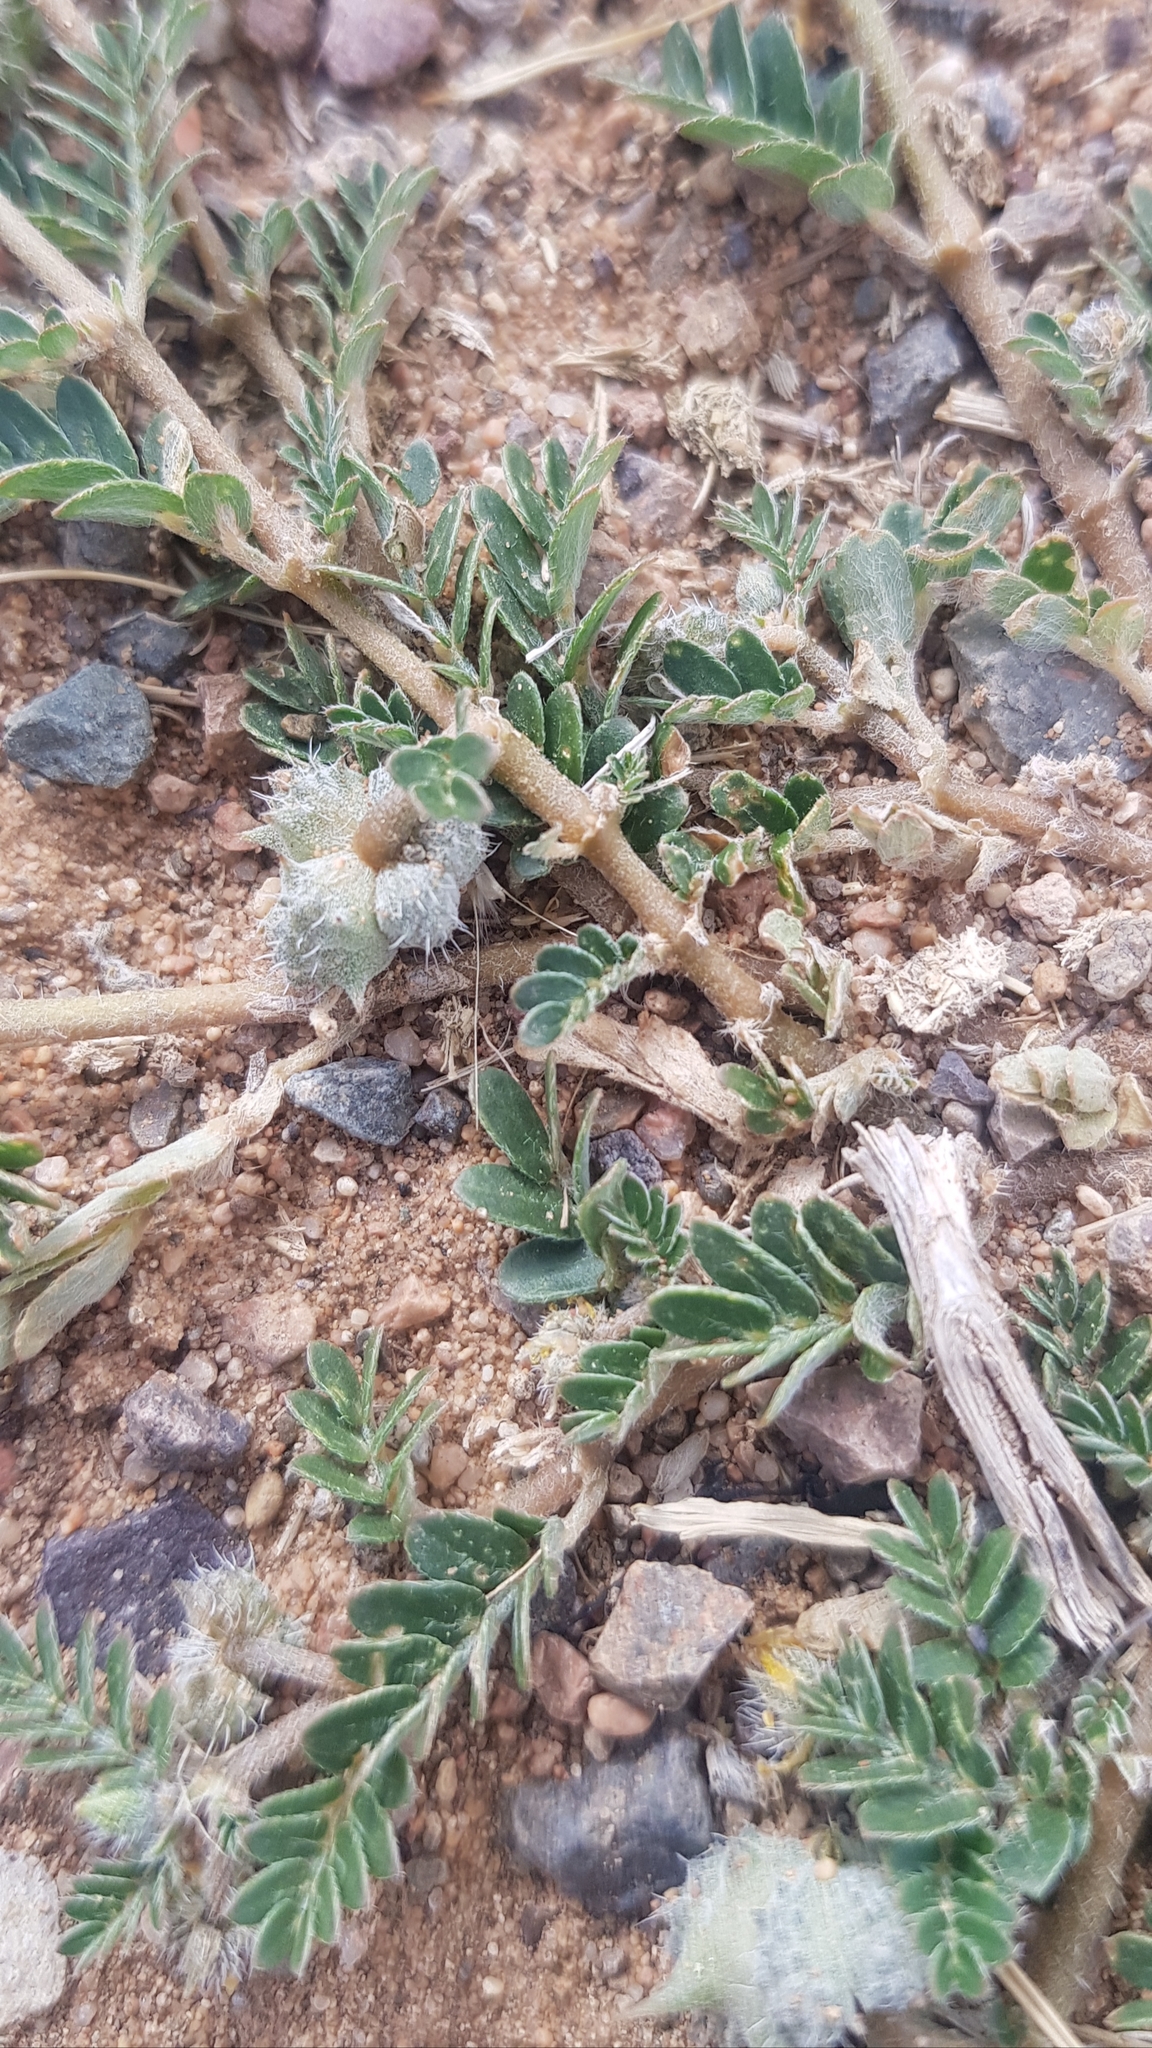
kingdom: Plantae
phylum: Tracheophyta
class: Magnoliopsida
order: Zygophyllales
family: Zygophyllaceae
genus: Tribulus
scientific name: Tribulus terrestris
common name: Puncturevine
